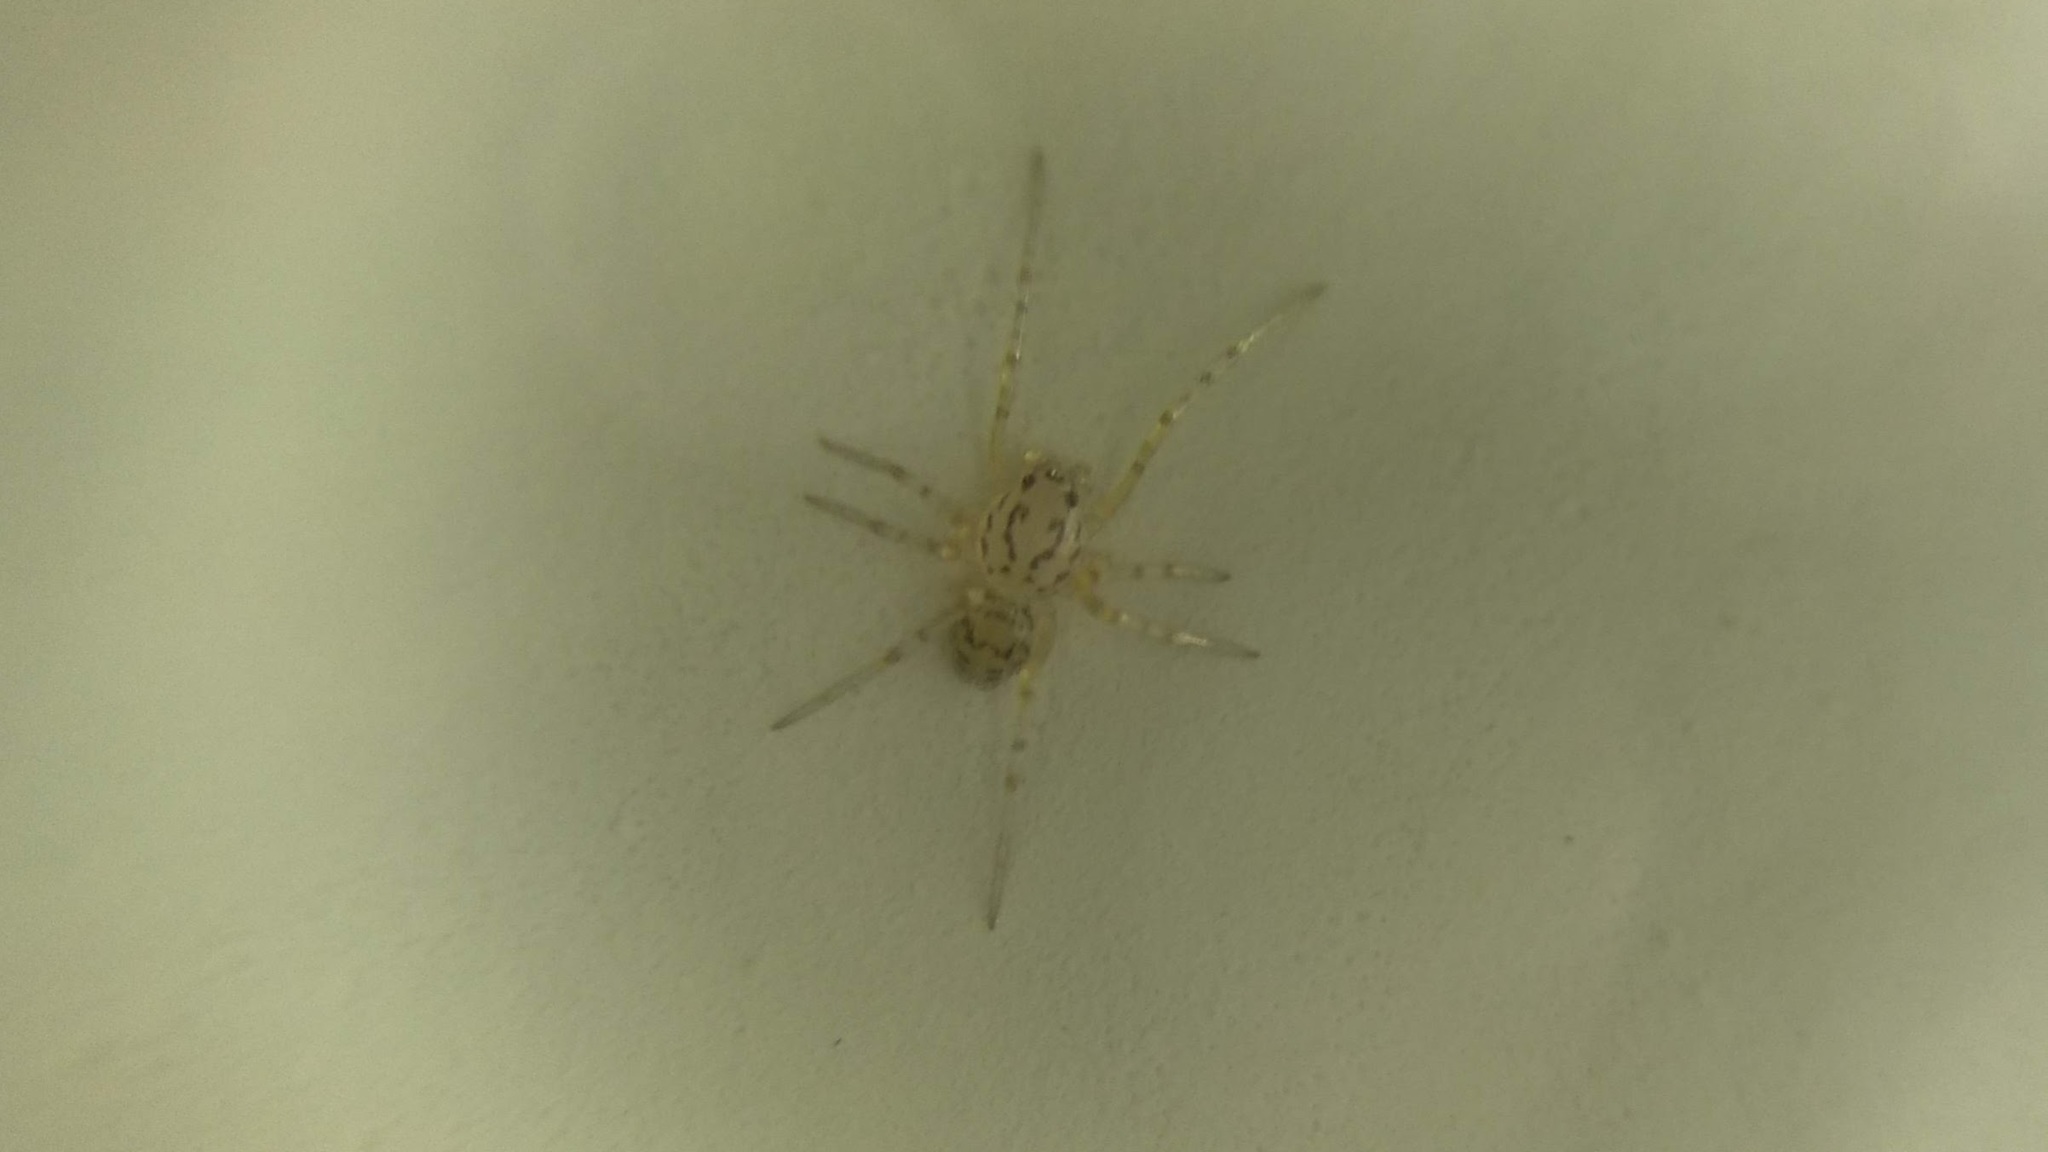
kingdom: Animalia
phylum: Arthropoda
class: Arachnida
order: Araneae
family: Scytodidae
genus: Scytodes
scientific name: Scytodes thoracica
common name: Spitting spider
